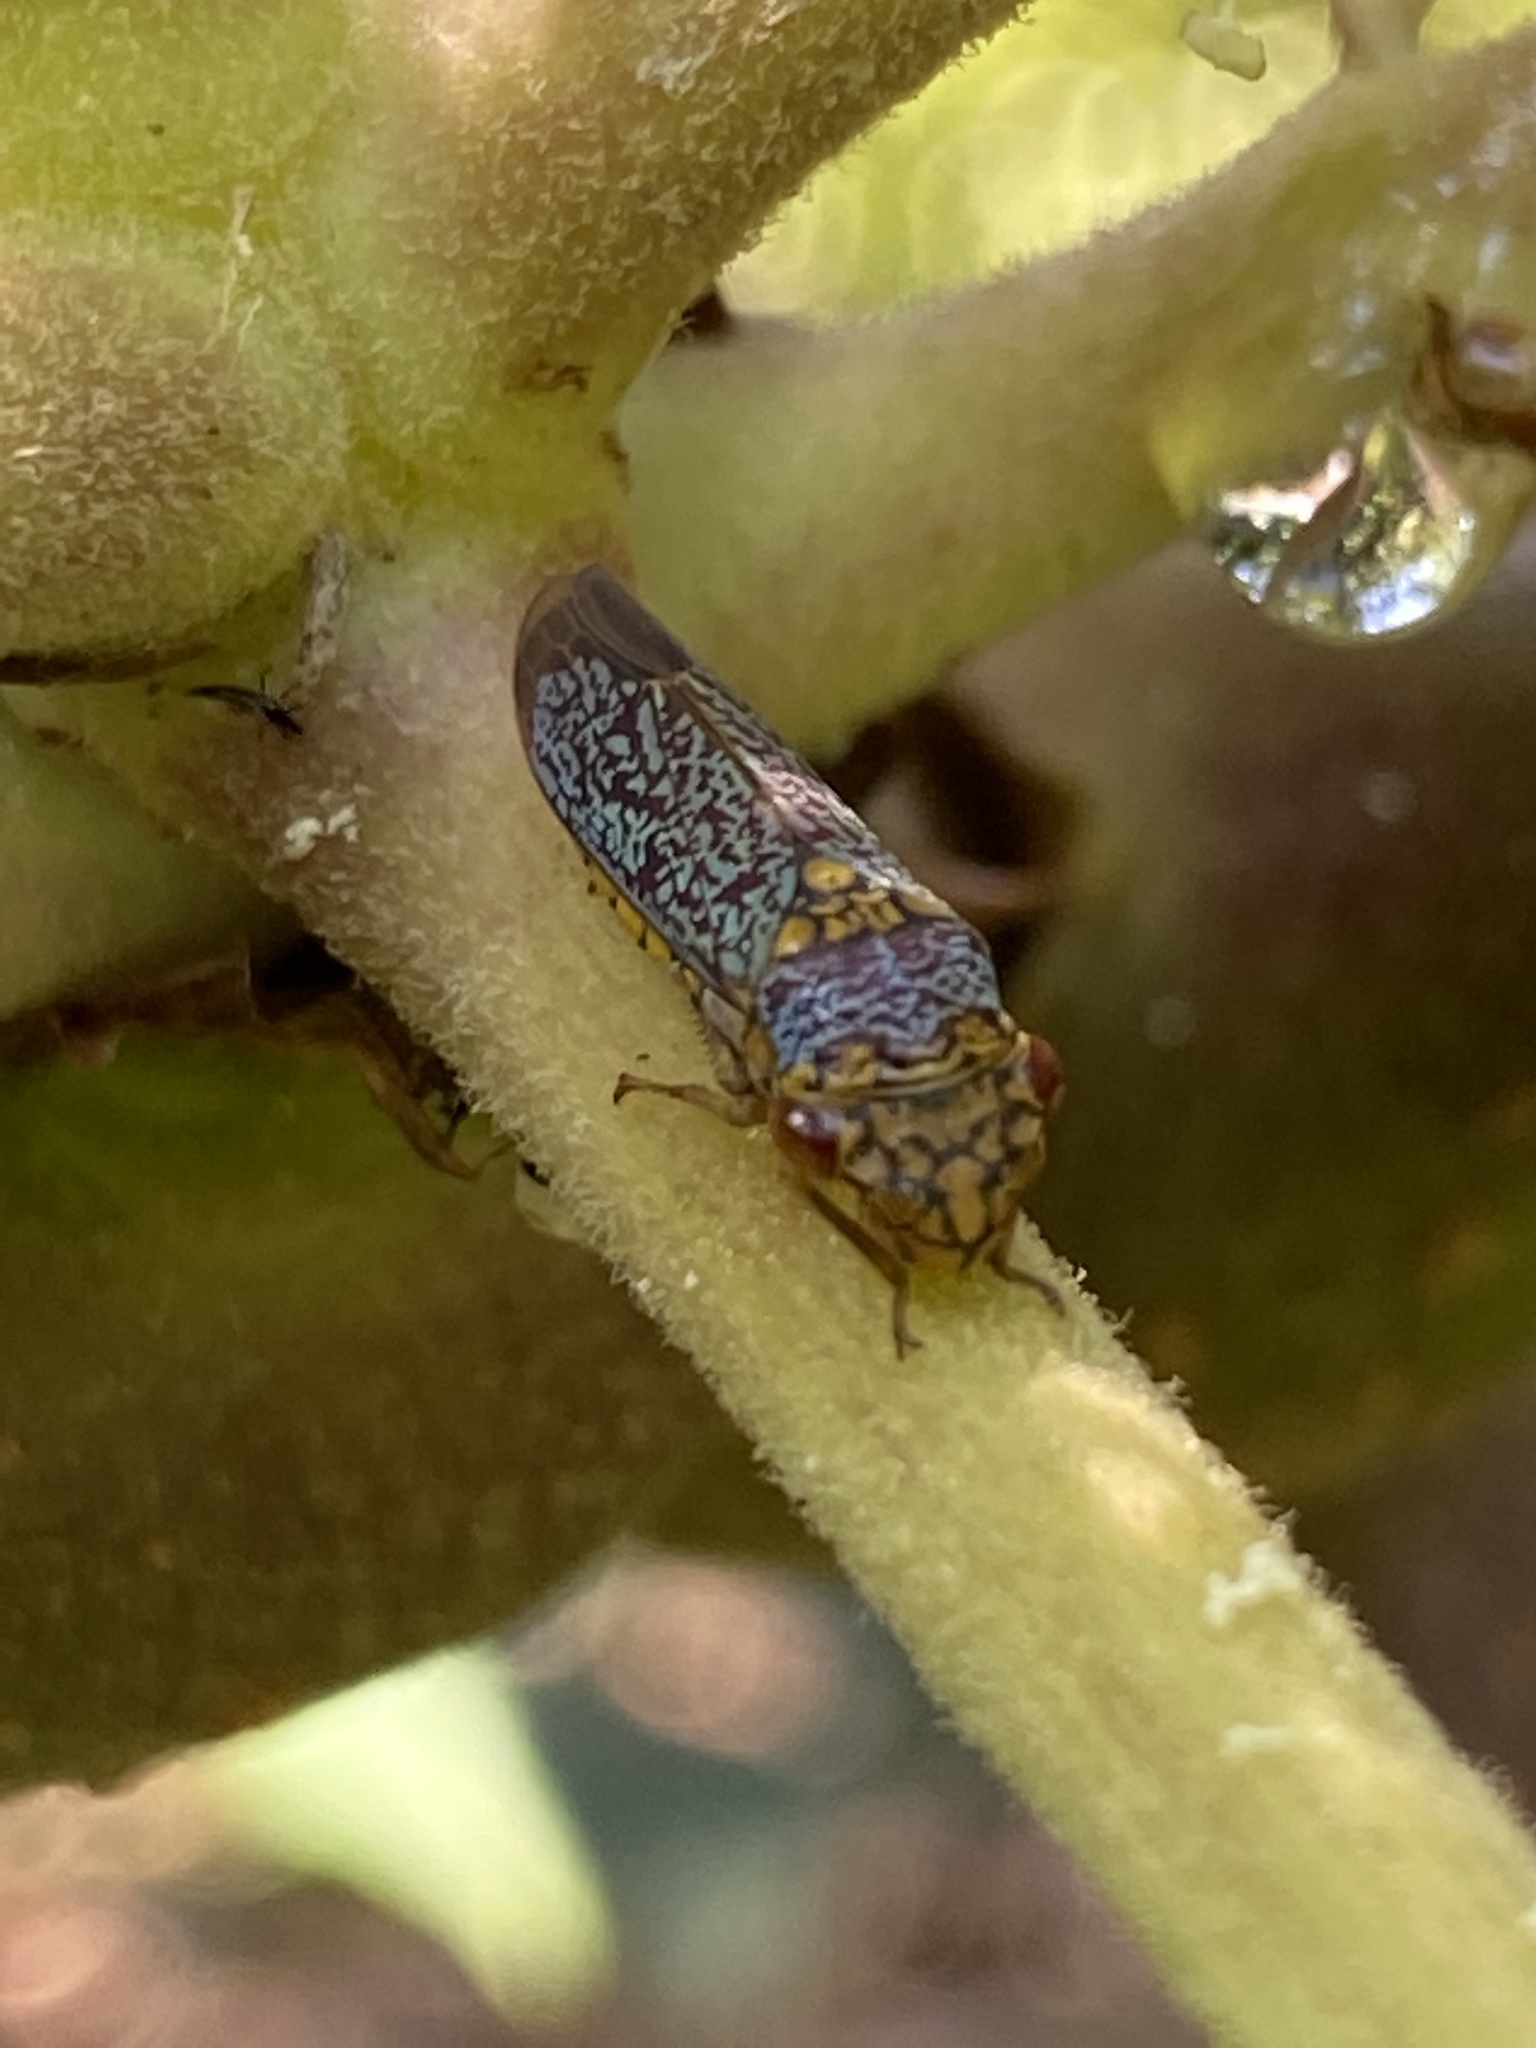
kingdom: Animalia
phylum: Arthropoda
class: Insecta
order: Hemiptera
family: Cicadellidae
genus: Oncometopia
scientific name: Oncometopia orbona
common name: Broad-headed sharpshooter
